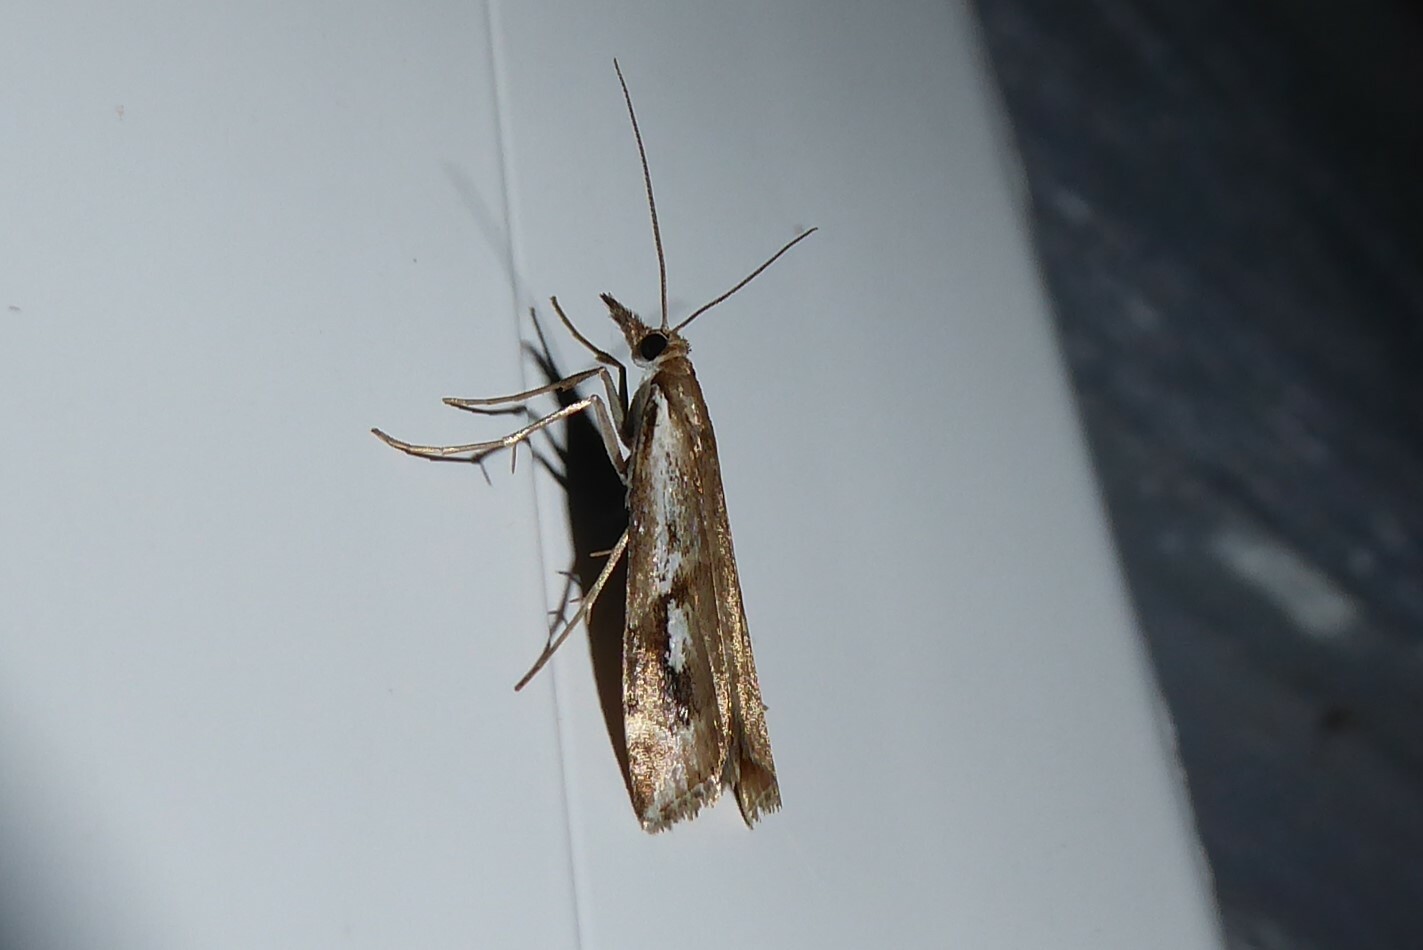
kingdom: Animalia
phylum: Arthropoda
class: Insecta
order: Lepidoptera
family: Crambidae
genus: Orocrambus
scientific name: Orocrambus vulgaris
